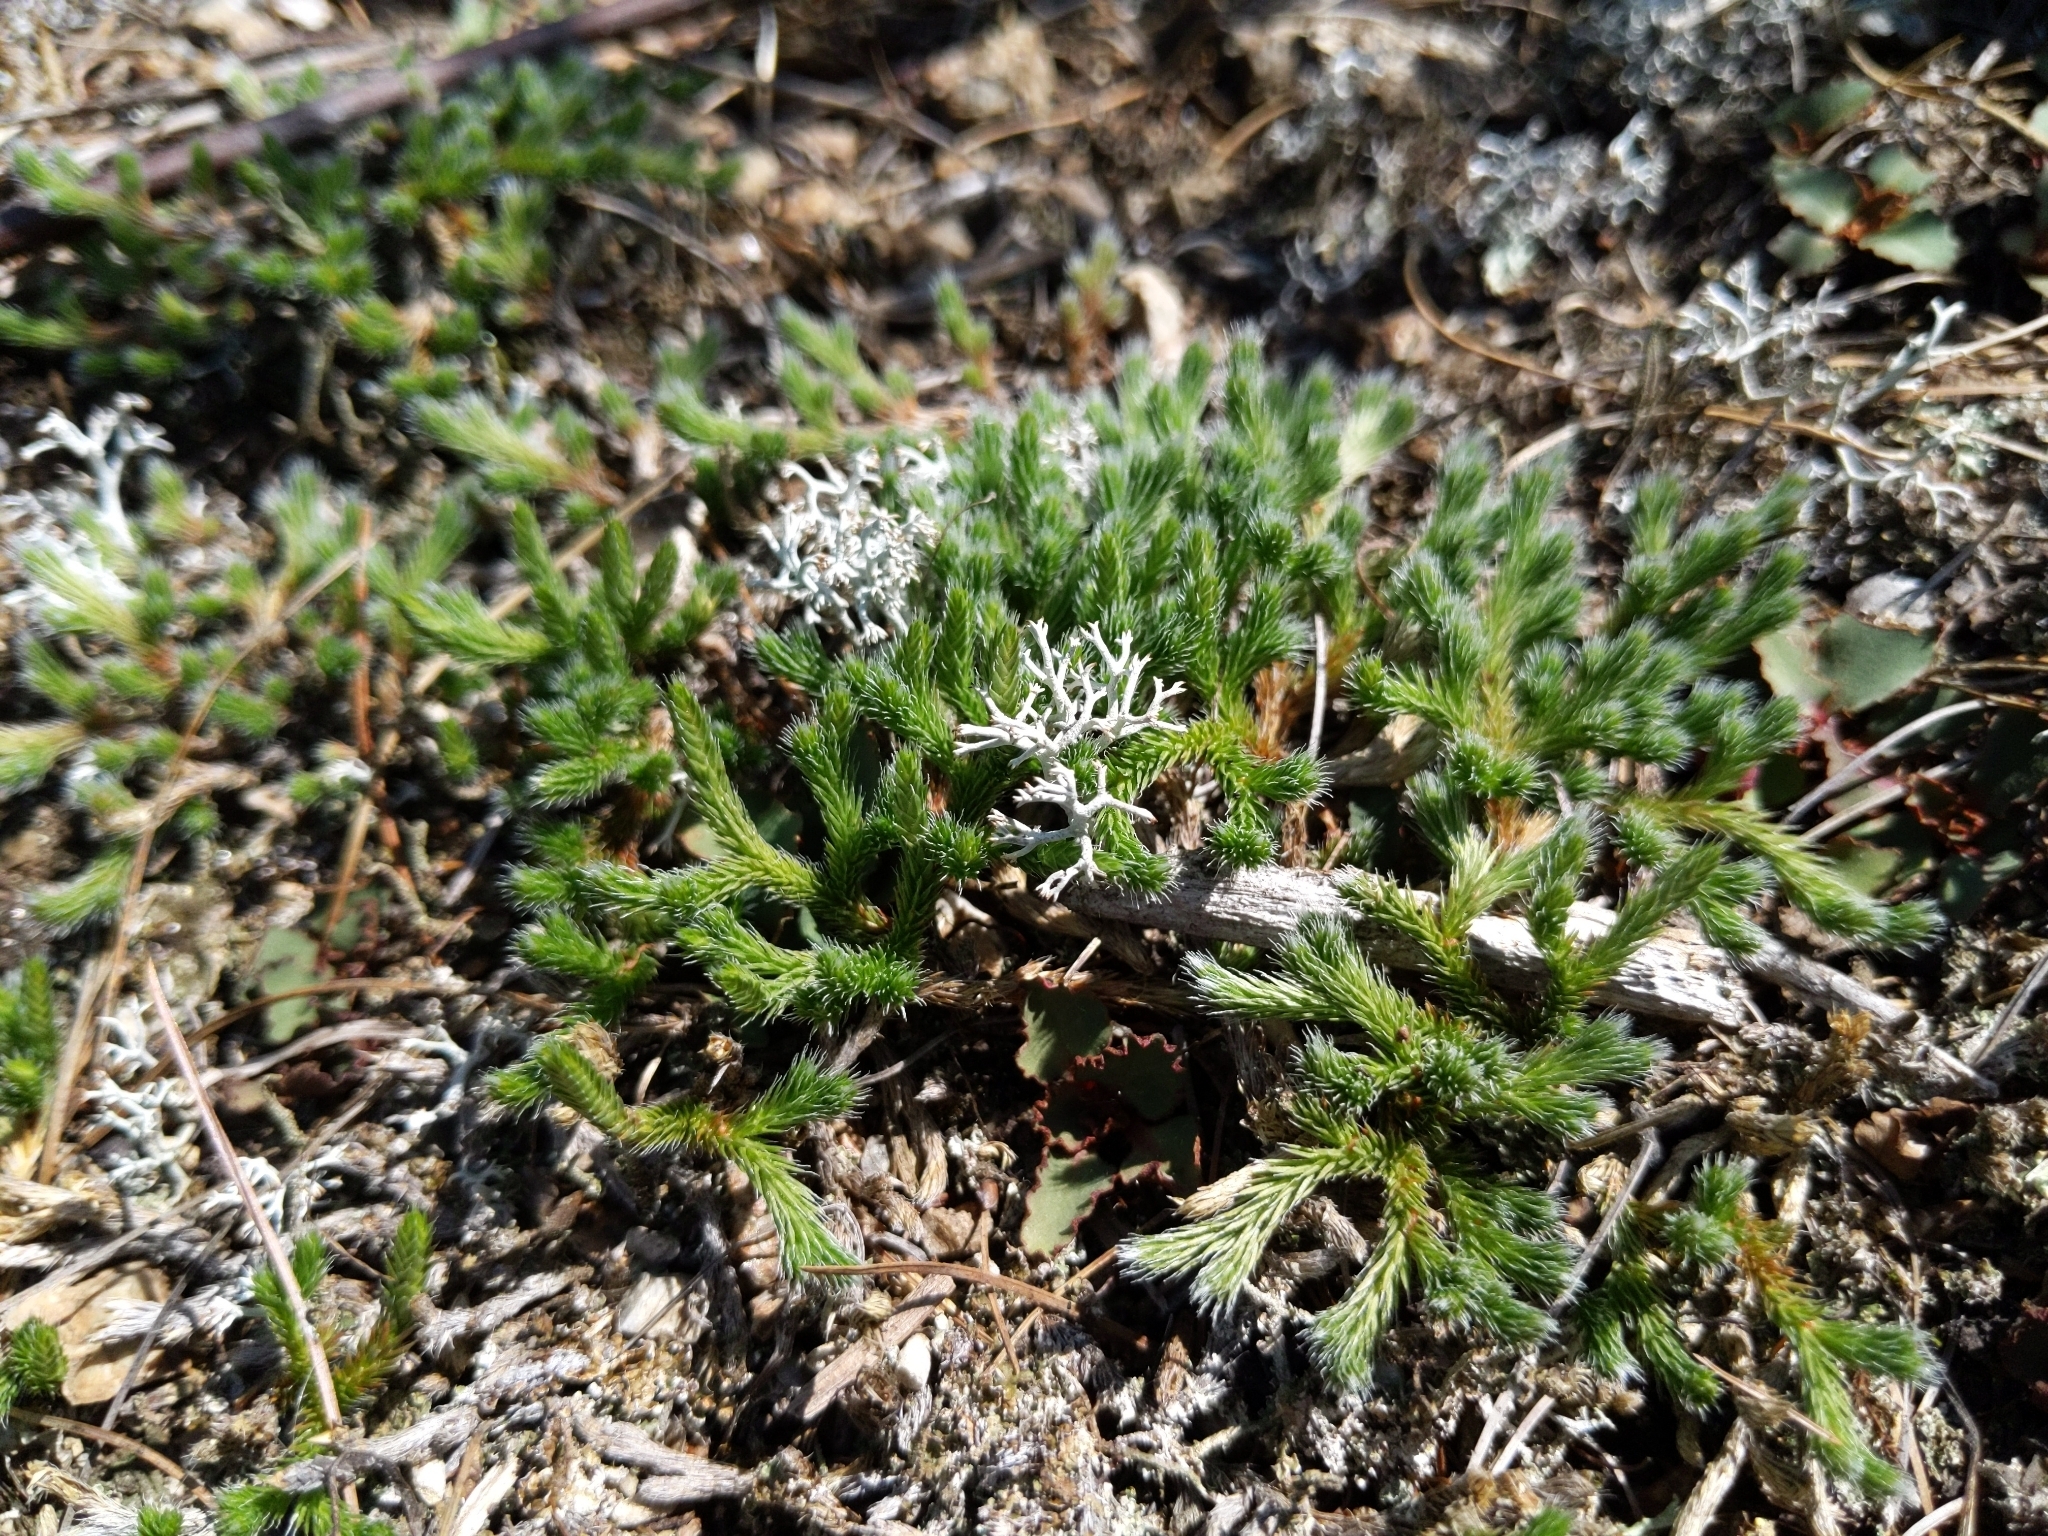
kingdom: Plantae
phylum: Tracheophyta
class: Lycopodiopsida
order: Selaginellales
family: Selaginellaceae
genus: Selaginella
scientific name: Selaginella rupestris
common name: Dwarf spikemoss
